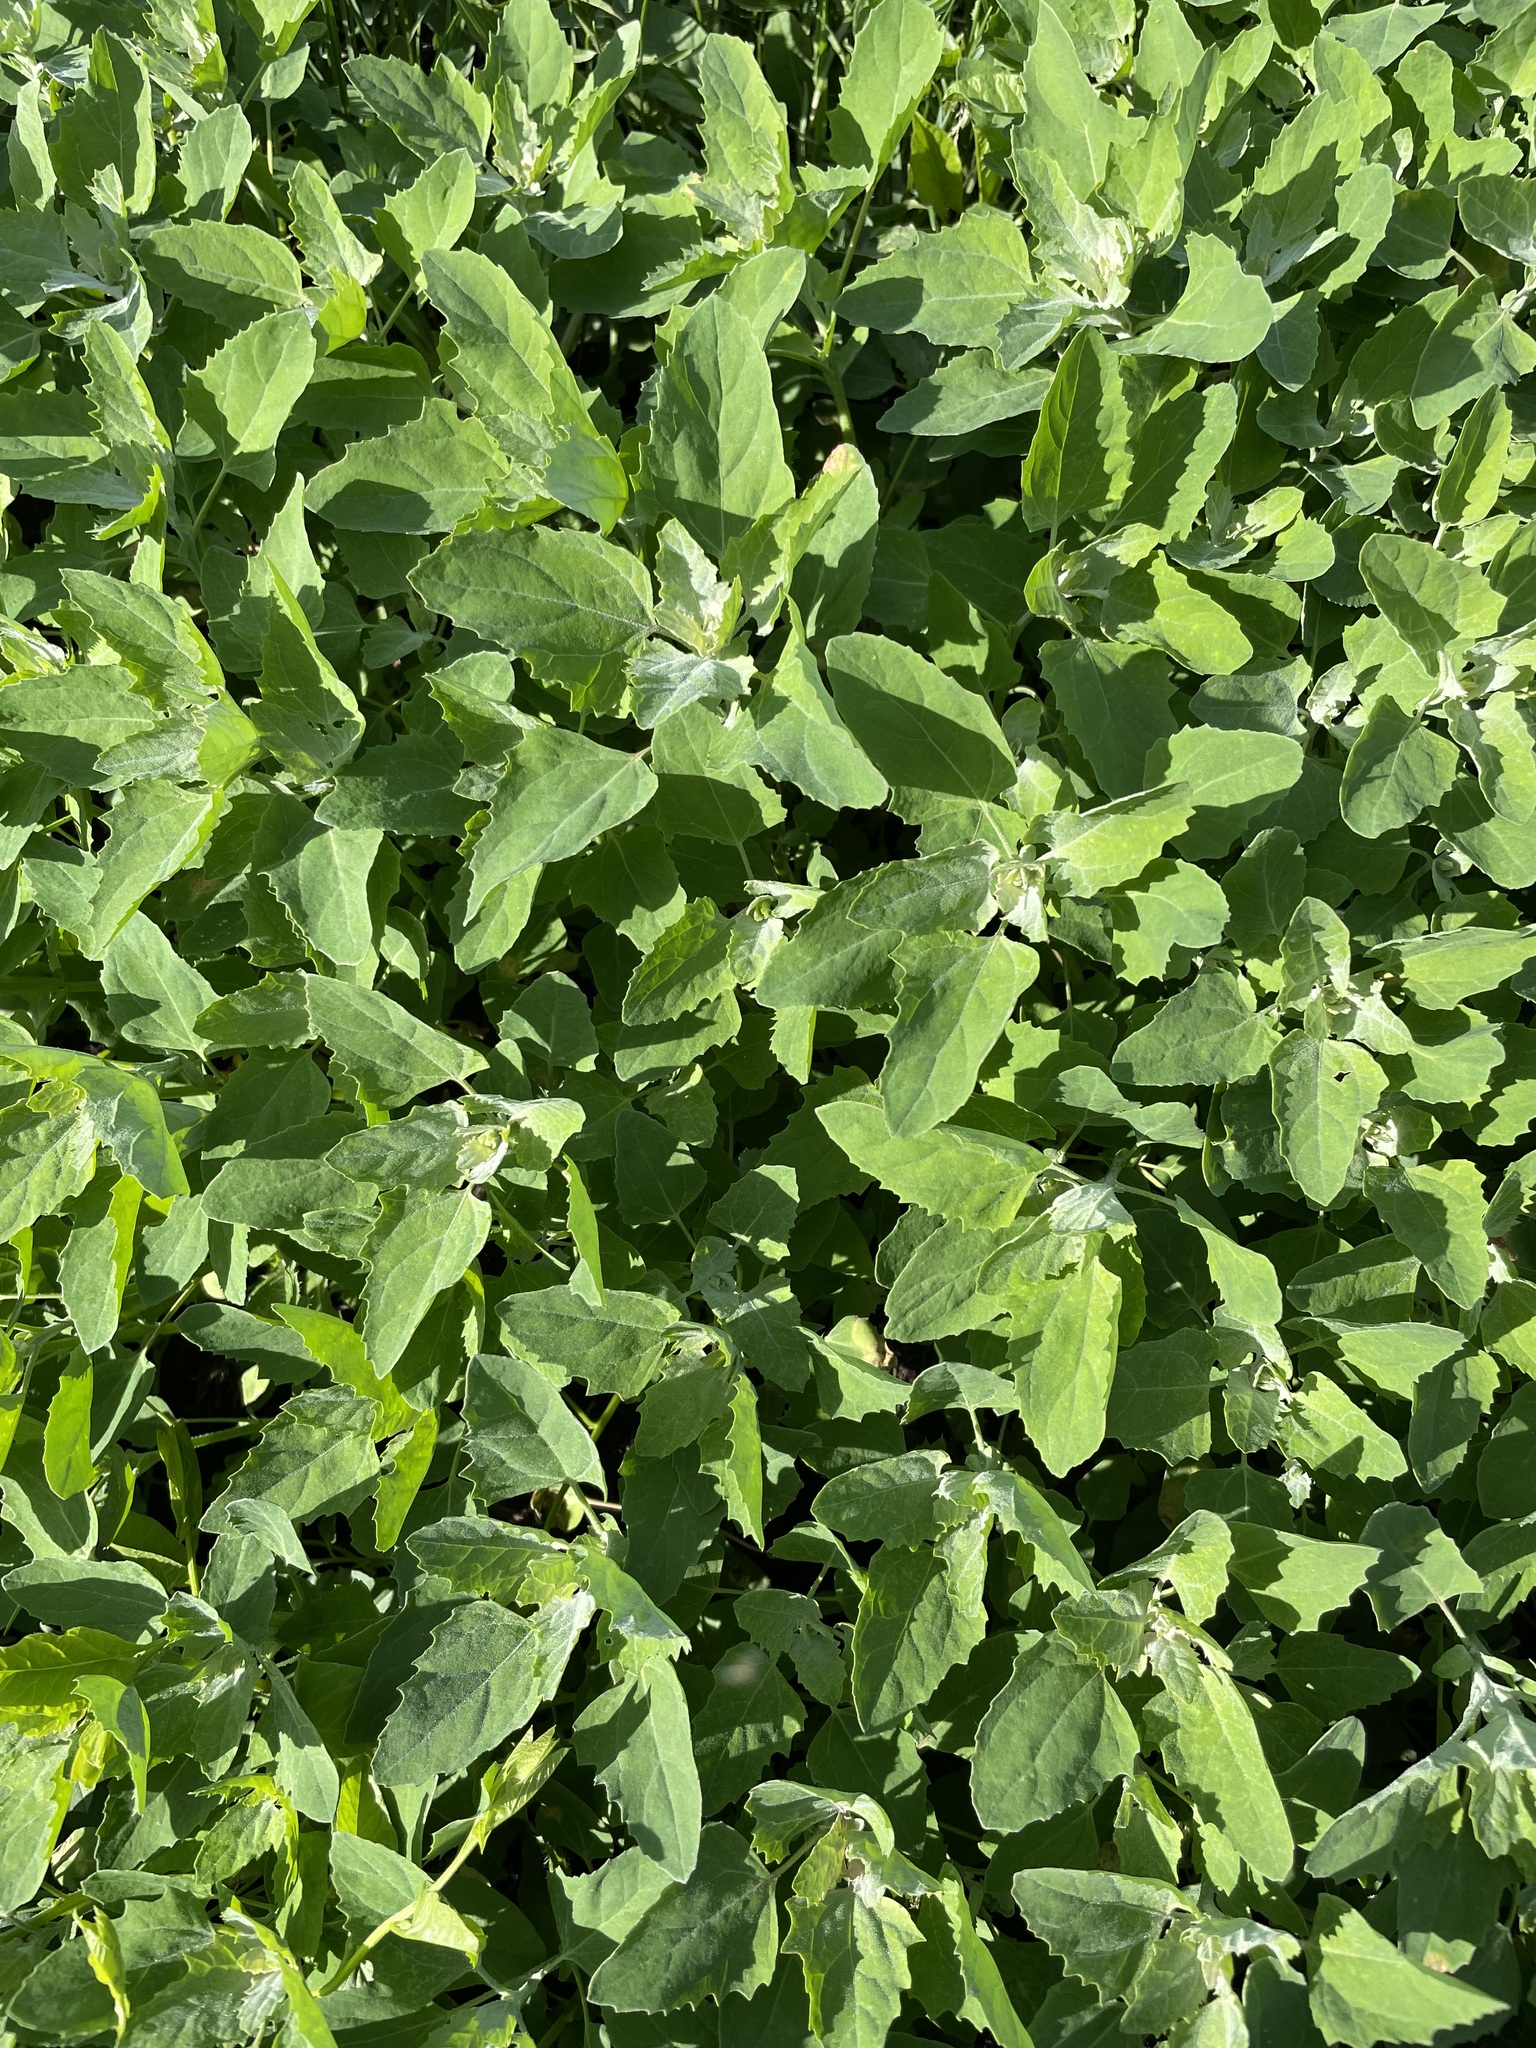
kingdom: Plantae
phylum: Tracheophyta
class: Magnoliopsida
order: Caryophyllales
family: Amaranthaceae
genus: Chenopodium
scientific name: Chenopodium album
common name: Fat-hen
